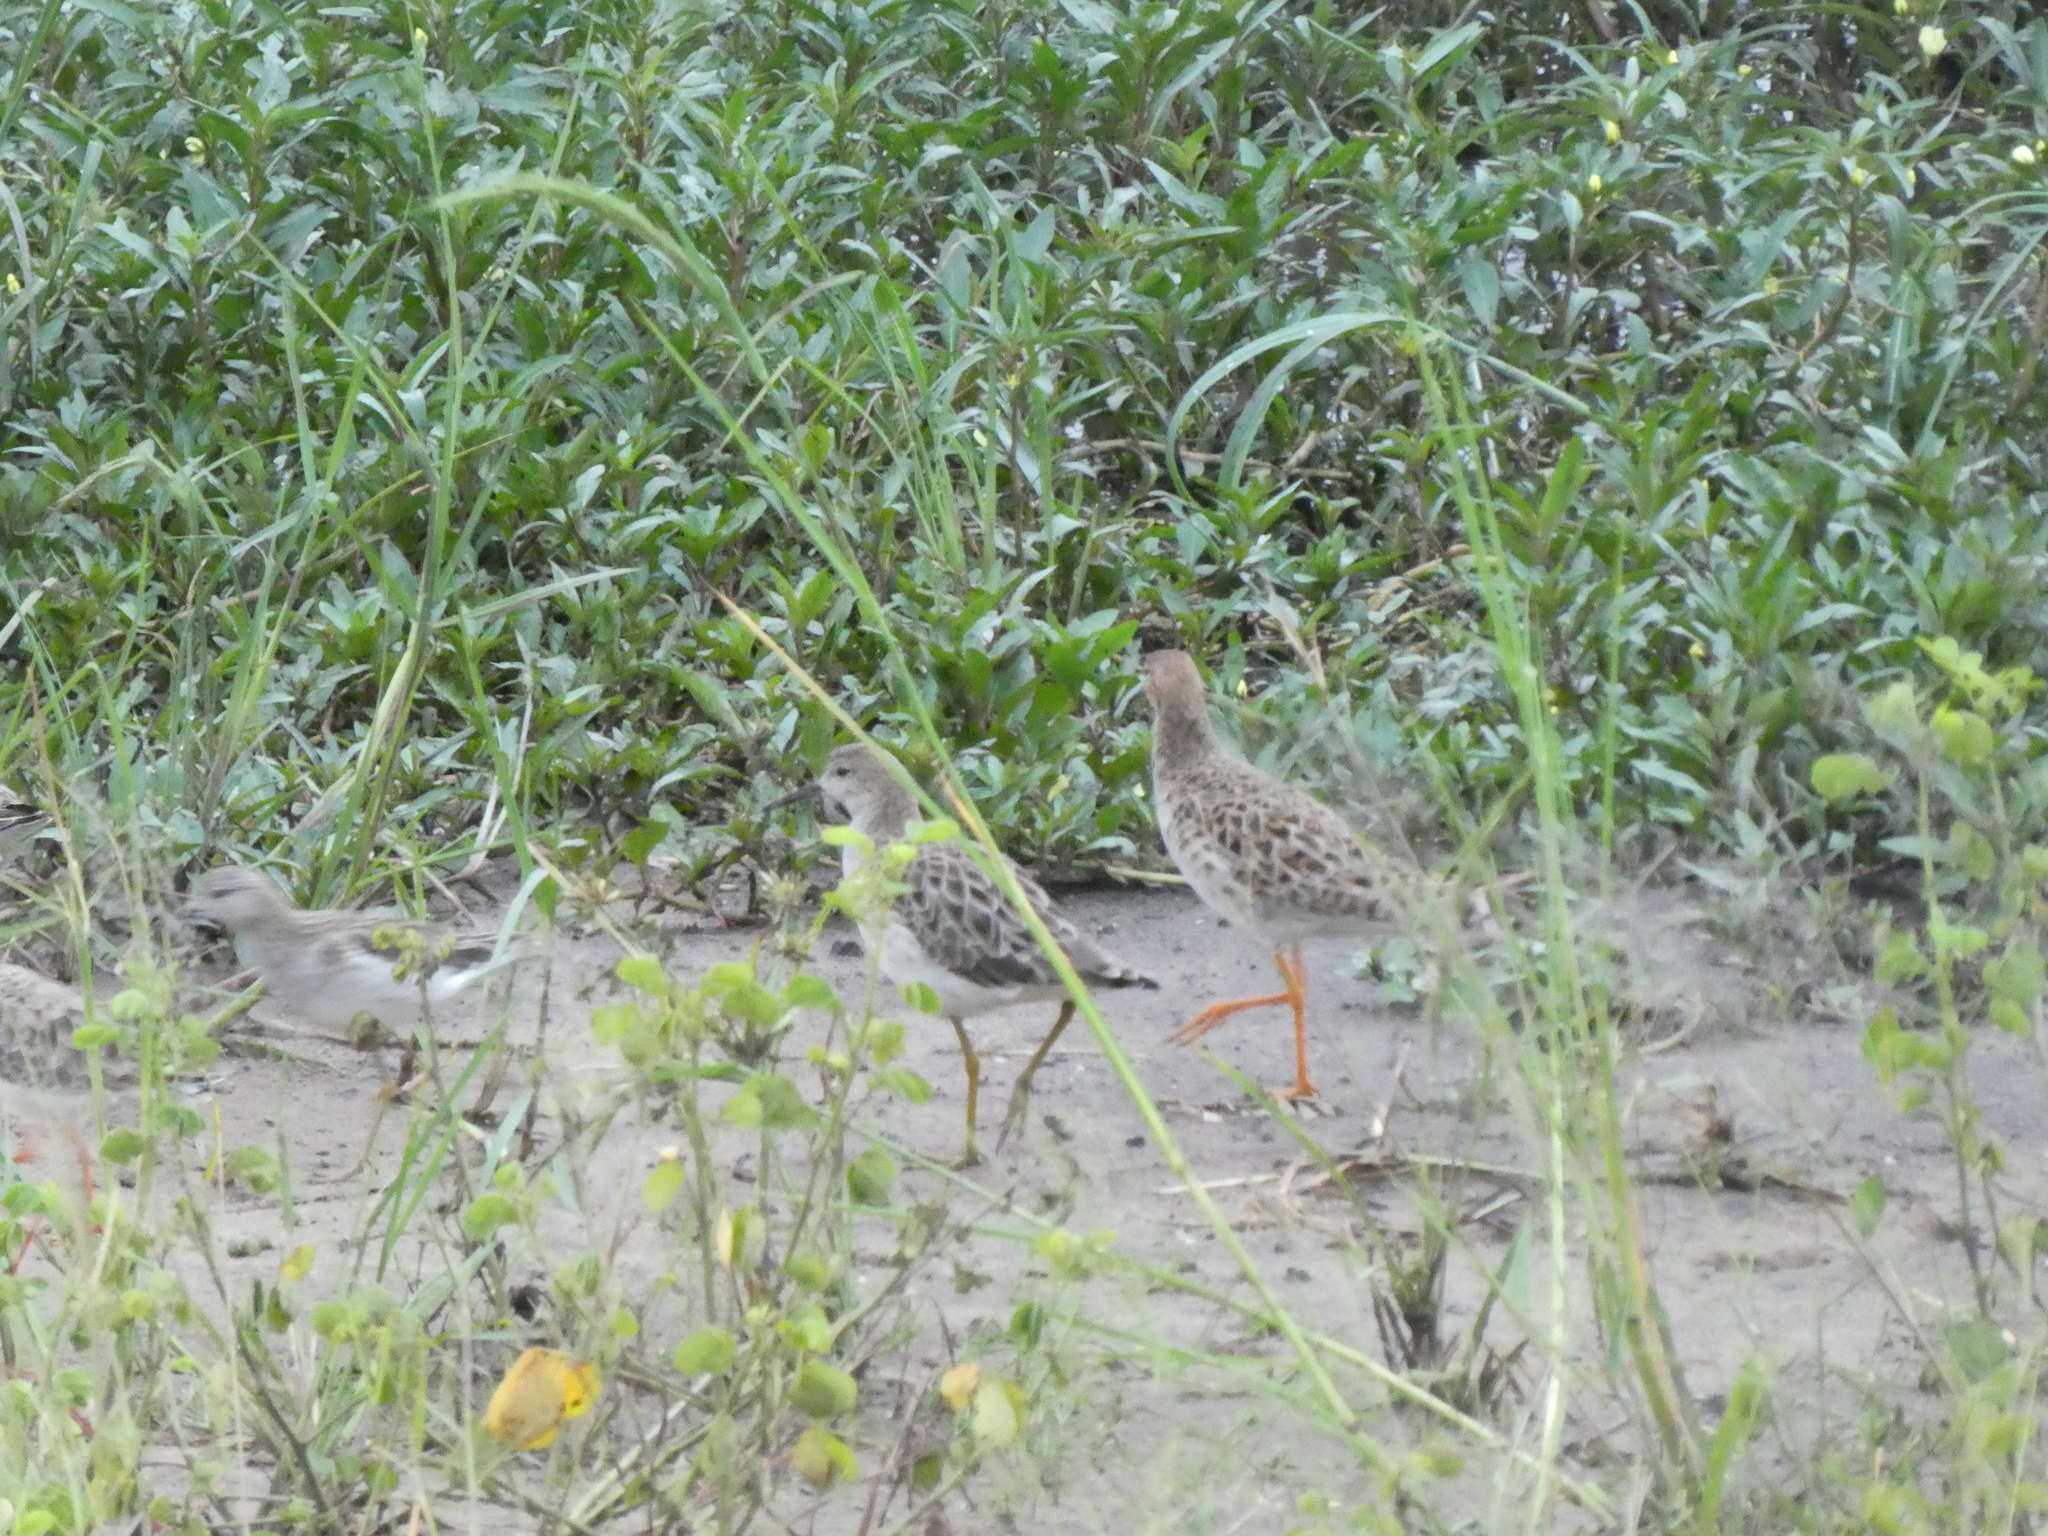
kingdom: Animalia
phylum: Chordata
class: Aves
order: Charadriiformes
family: Scolopacidae
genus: Calidris
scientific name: Calidris pugnax
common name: Ruff
